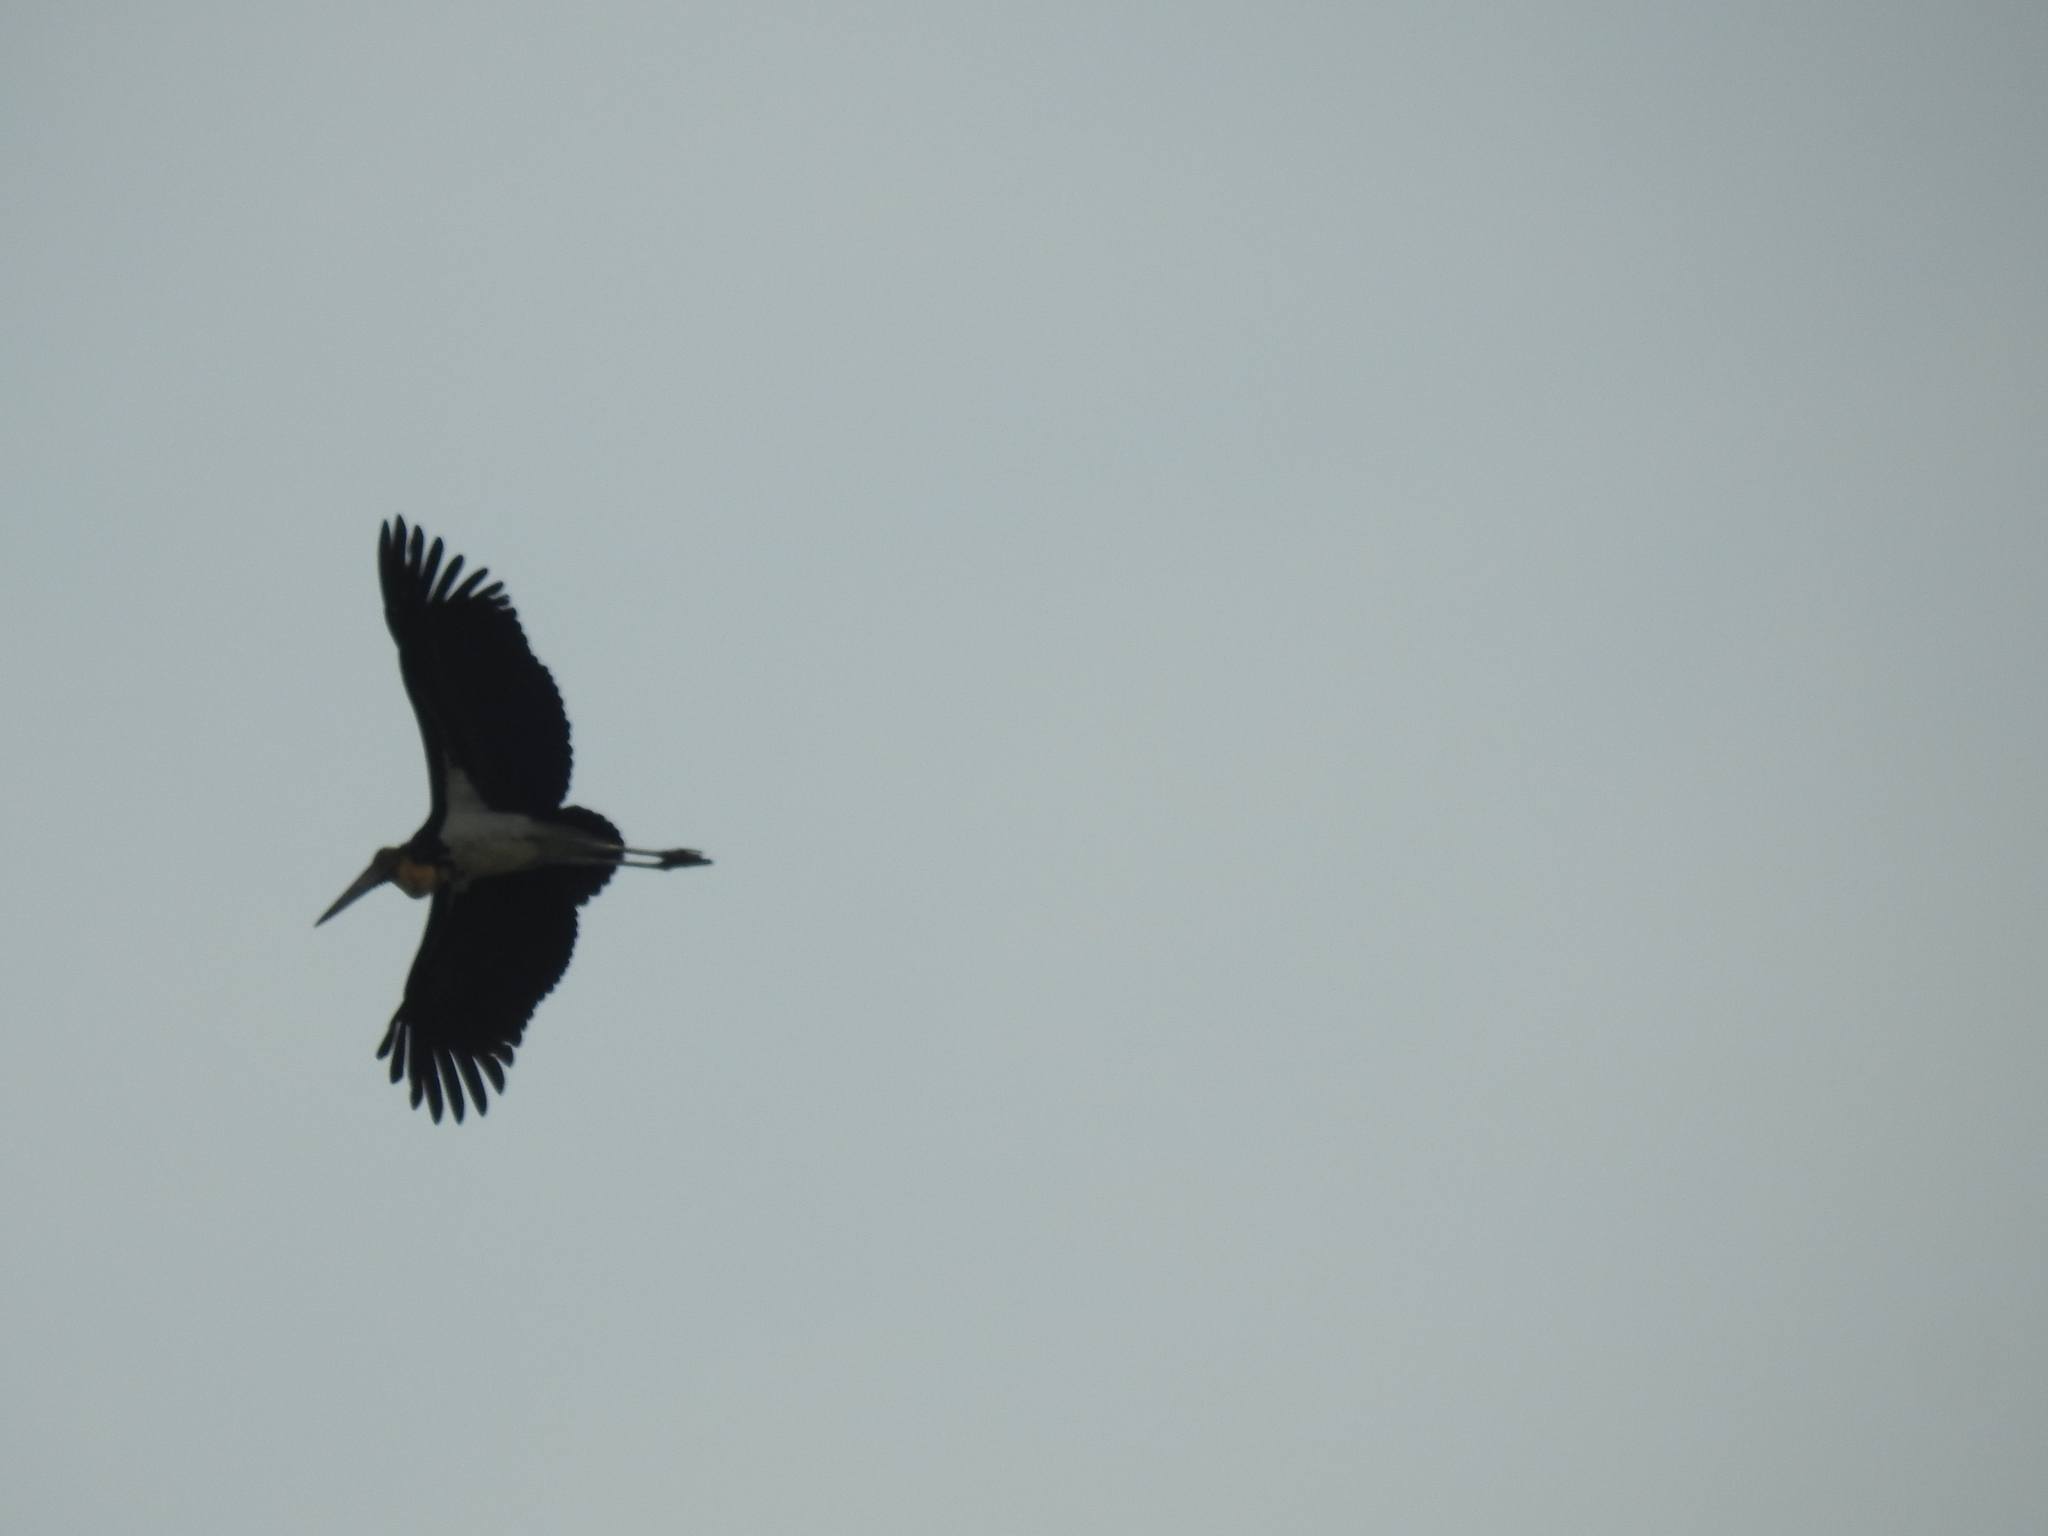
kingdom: Animalia
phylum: Chordata
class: Aves
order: Ciconiiformes
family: Ciconiidae
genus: Leptoptilos
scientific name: Leptoptilos javanicus
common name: Lesser adjutant
